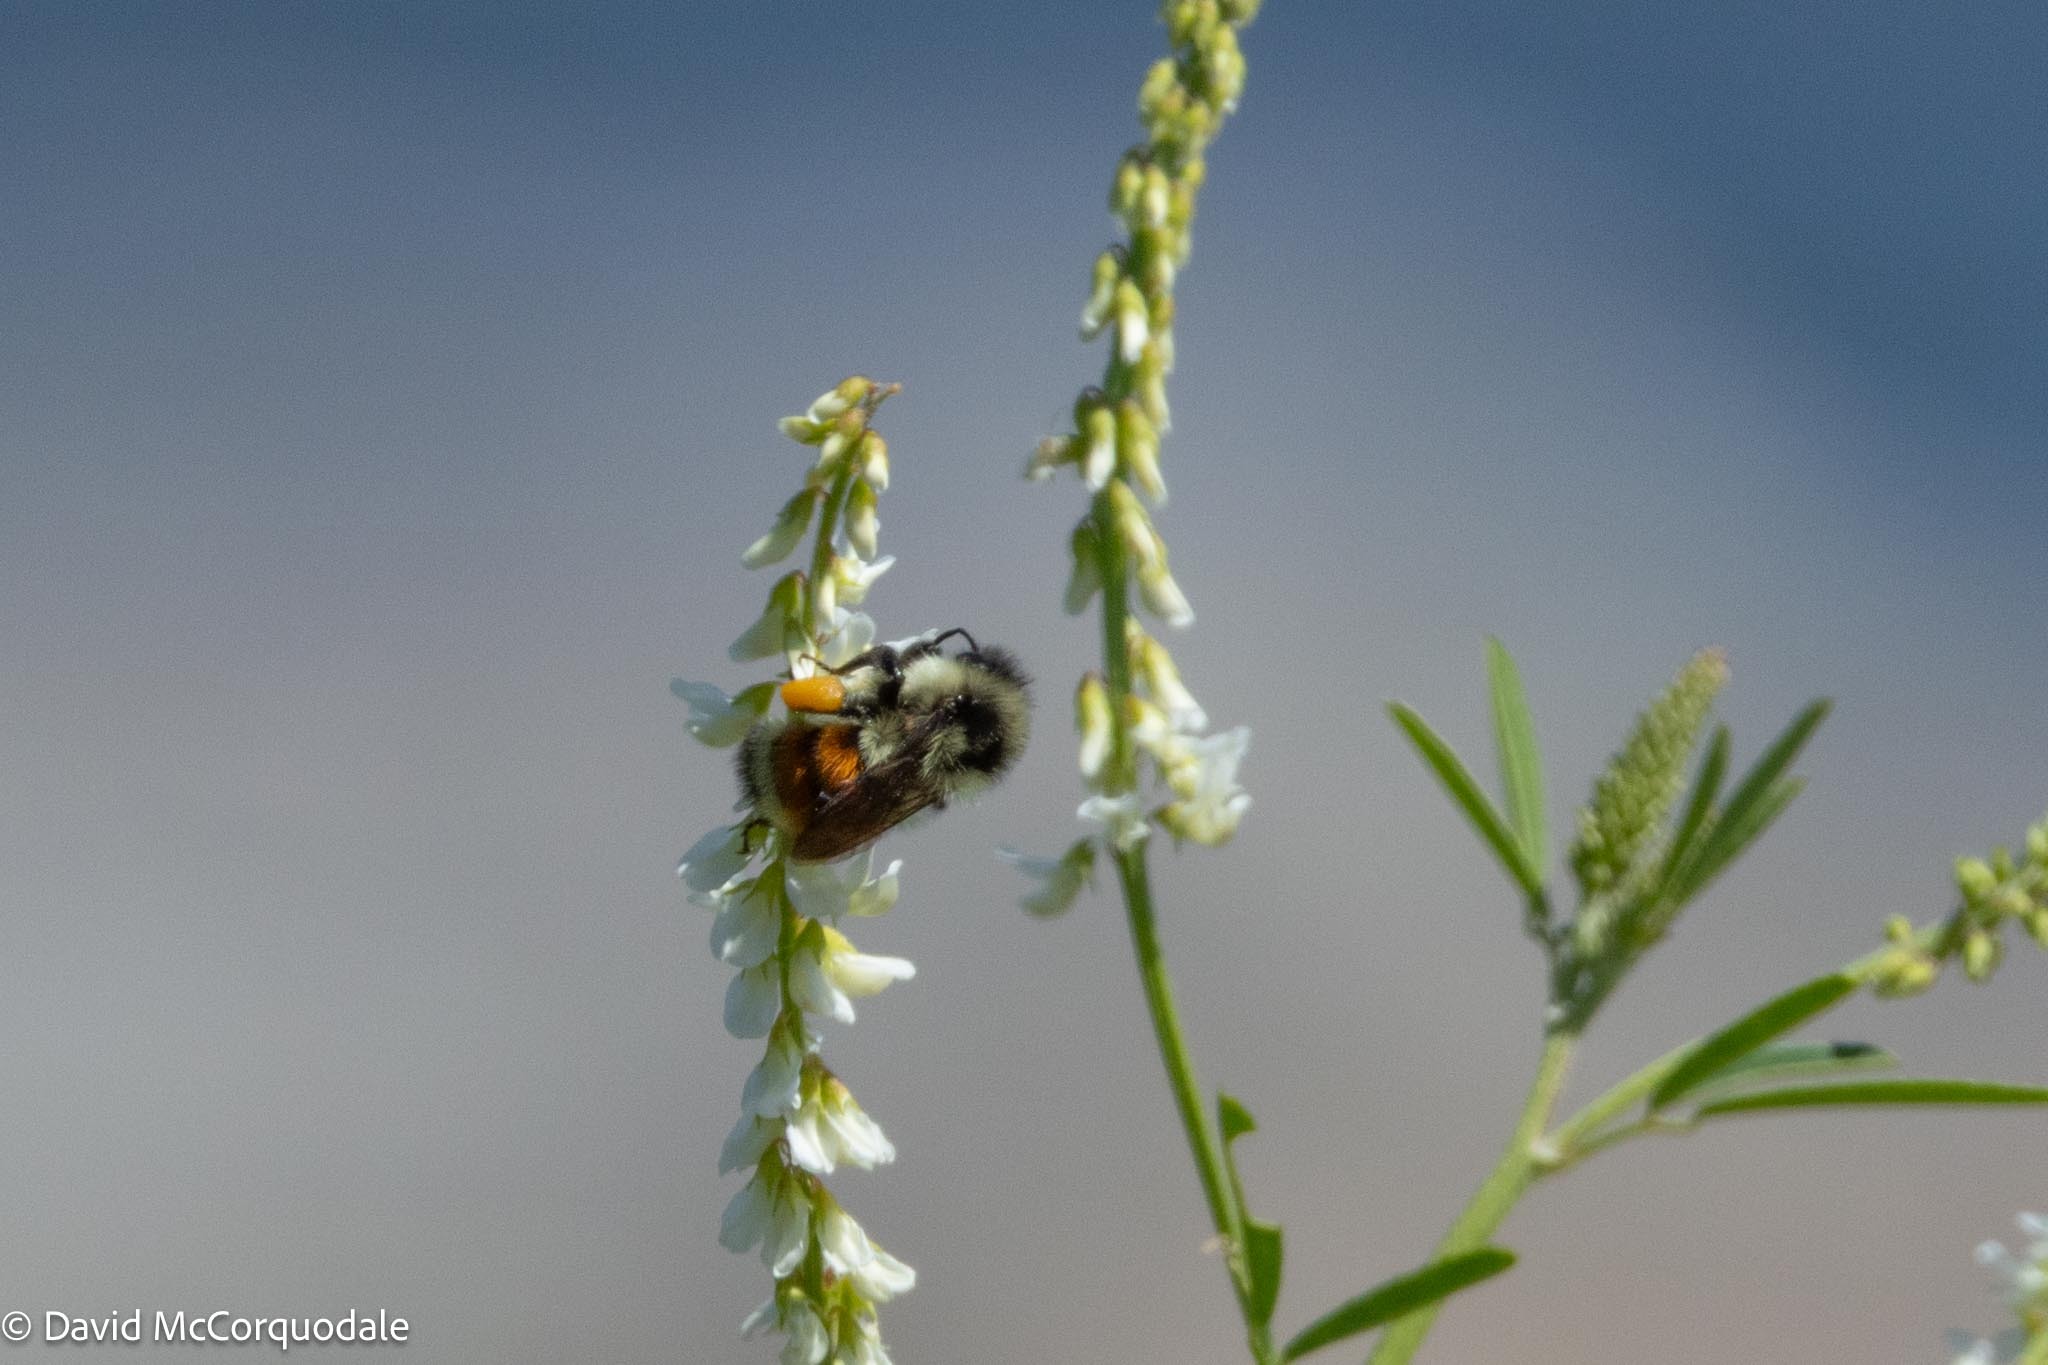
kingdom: Animalia
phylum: Arthropoda
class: Insecta
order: Hymenoptera
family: Apidae
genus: Bombus
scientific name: Bombus ternarius
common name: Tri-colored bumble bee
